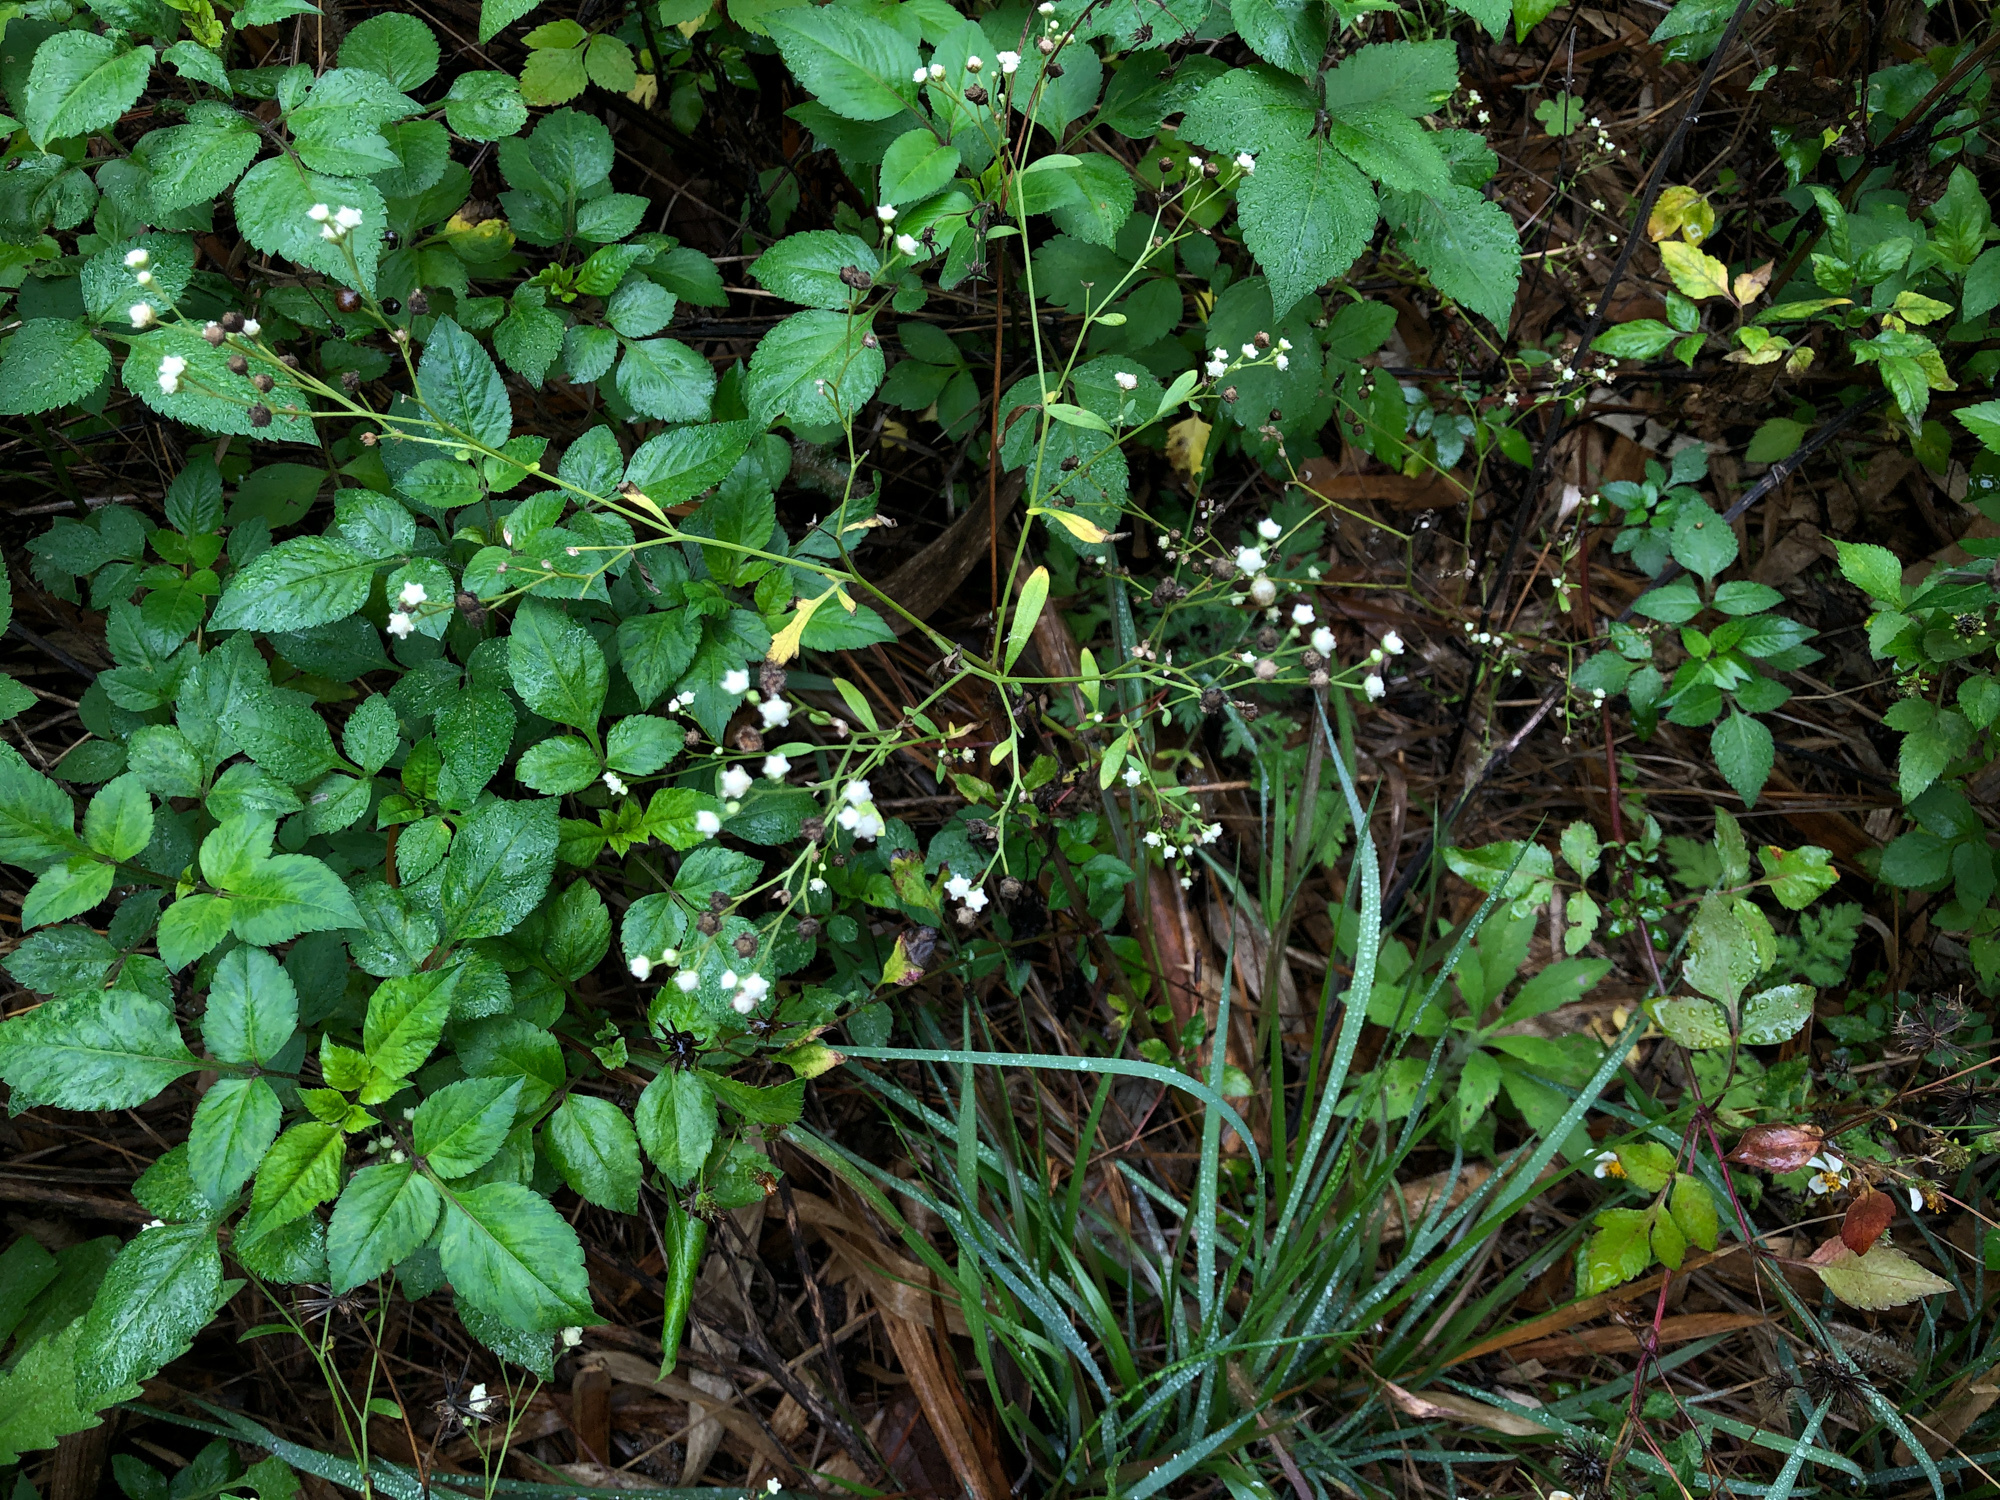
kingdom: Plantae
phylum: Tracheophyta
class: Magnoliopsida
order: Asterales
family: Asteraceae
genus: Parthenium
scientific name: Parthenium hysterophorus
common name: Santa maria feverfew
